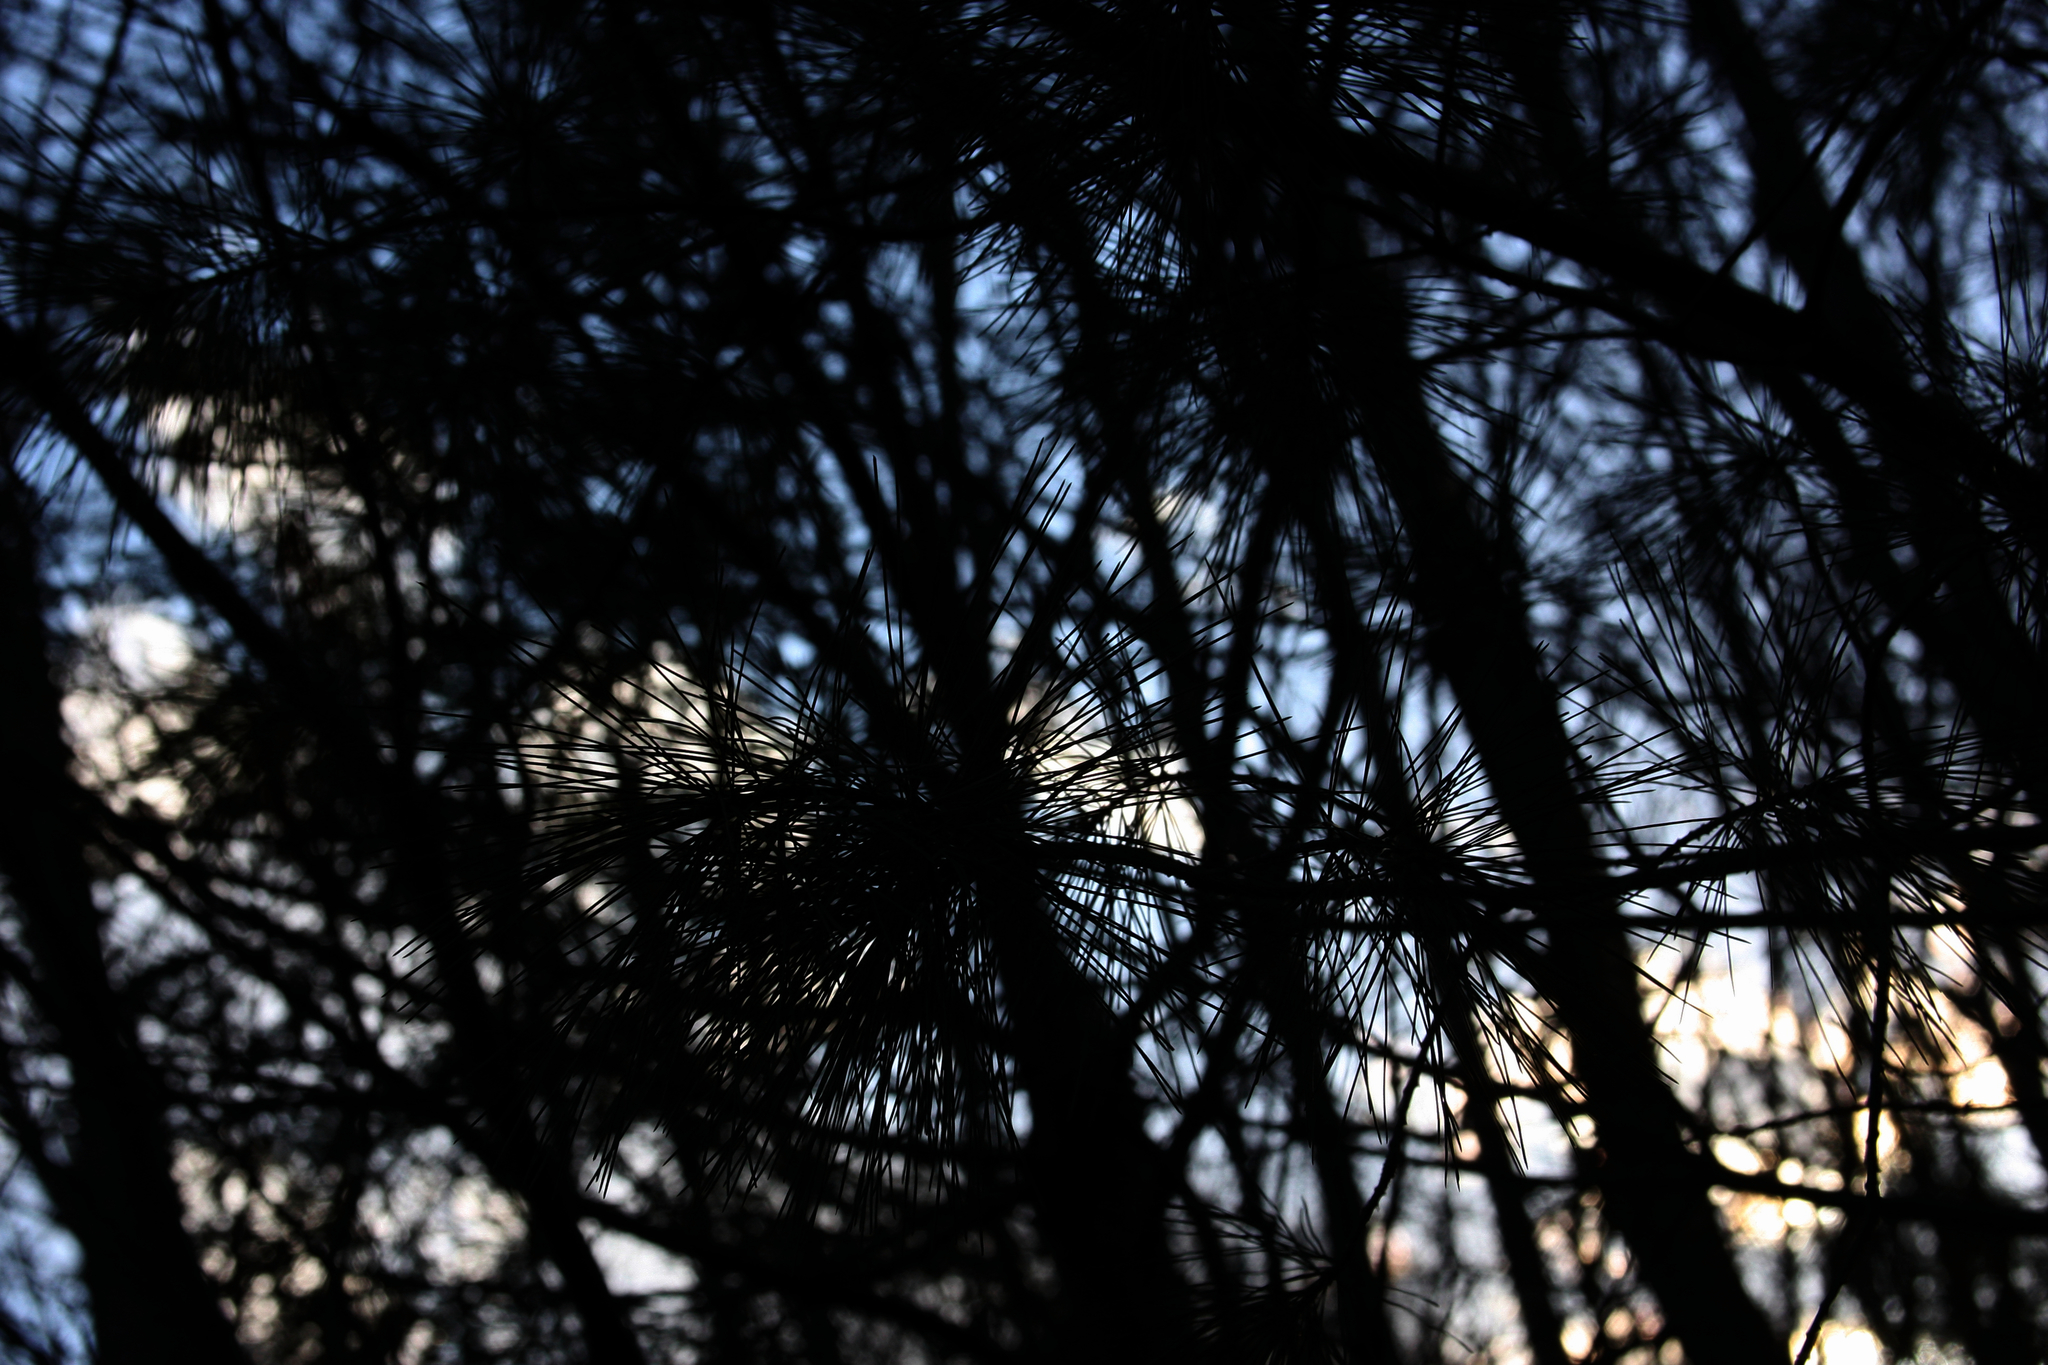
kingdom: Plantae
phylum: Tracheophyta
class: Pinopsida
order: Pinales
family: Pinaceae
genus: Pinus
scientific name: Pinus strobus
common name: Weymouth pine
